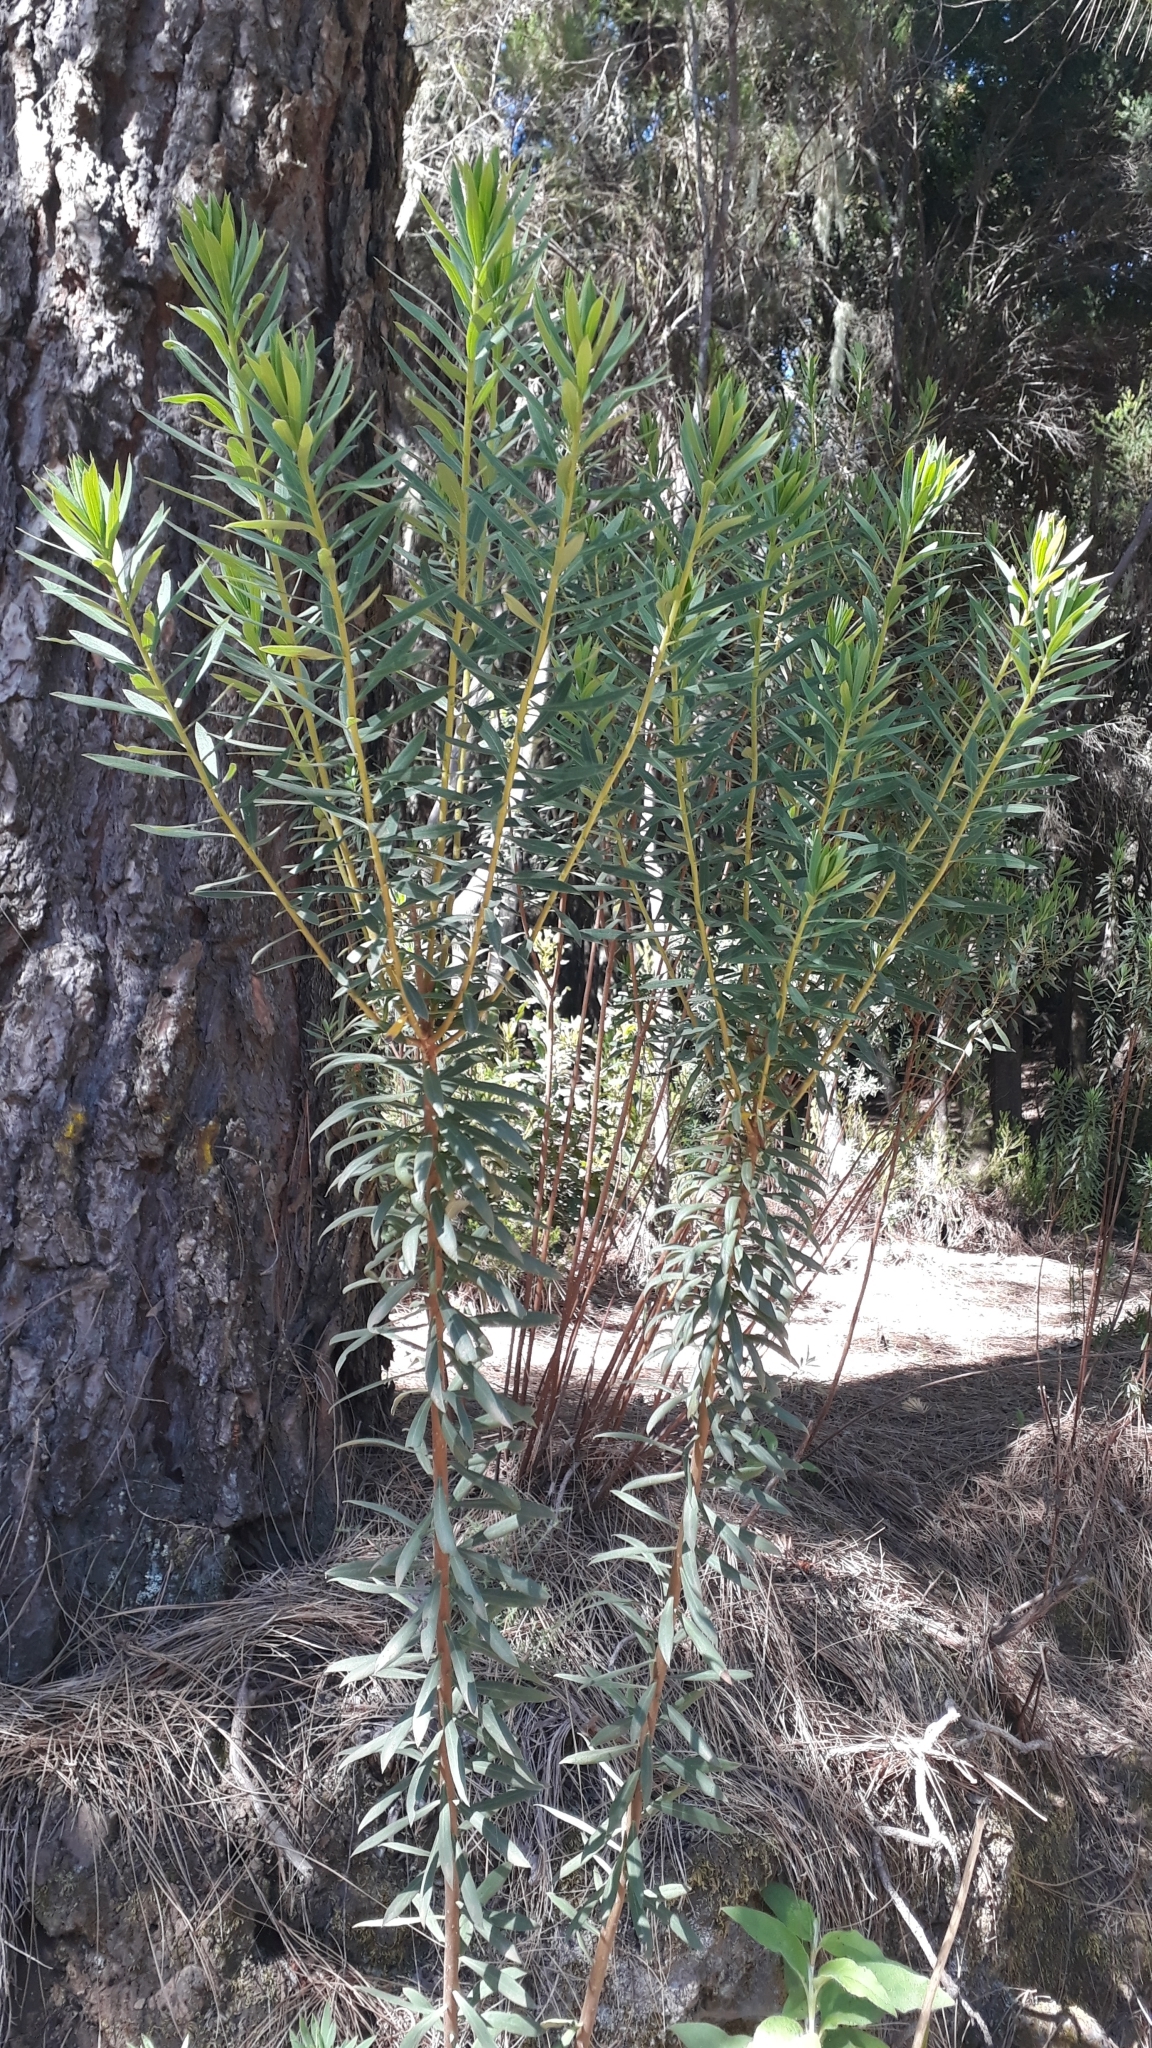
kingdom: Plantae
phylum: Tracheophyta
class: Magnoliopsida
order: Malvales
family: Thymelaeaceae
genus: Daphne
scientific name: Daphne gnidium
